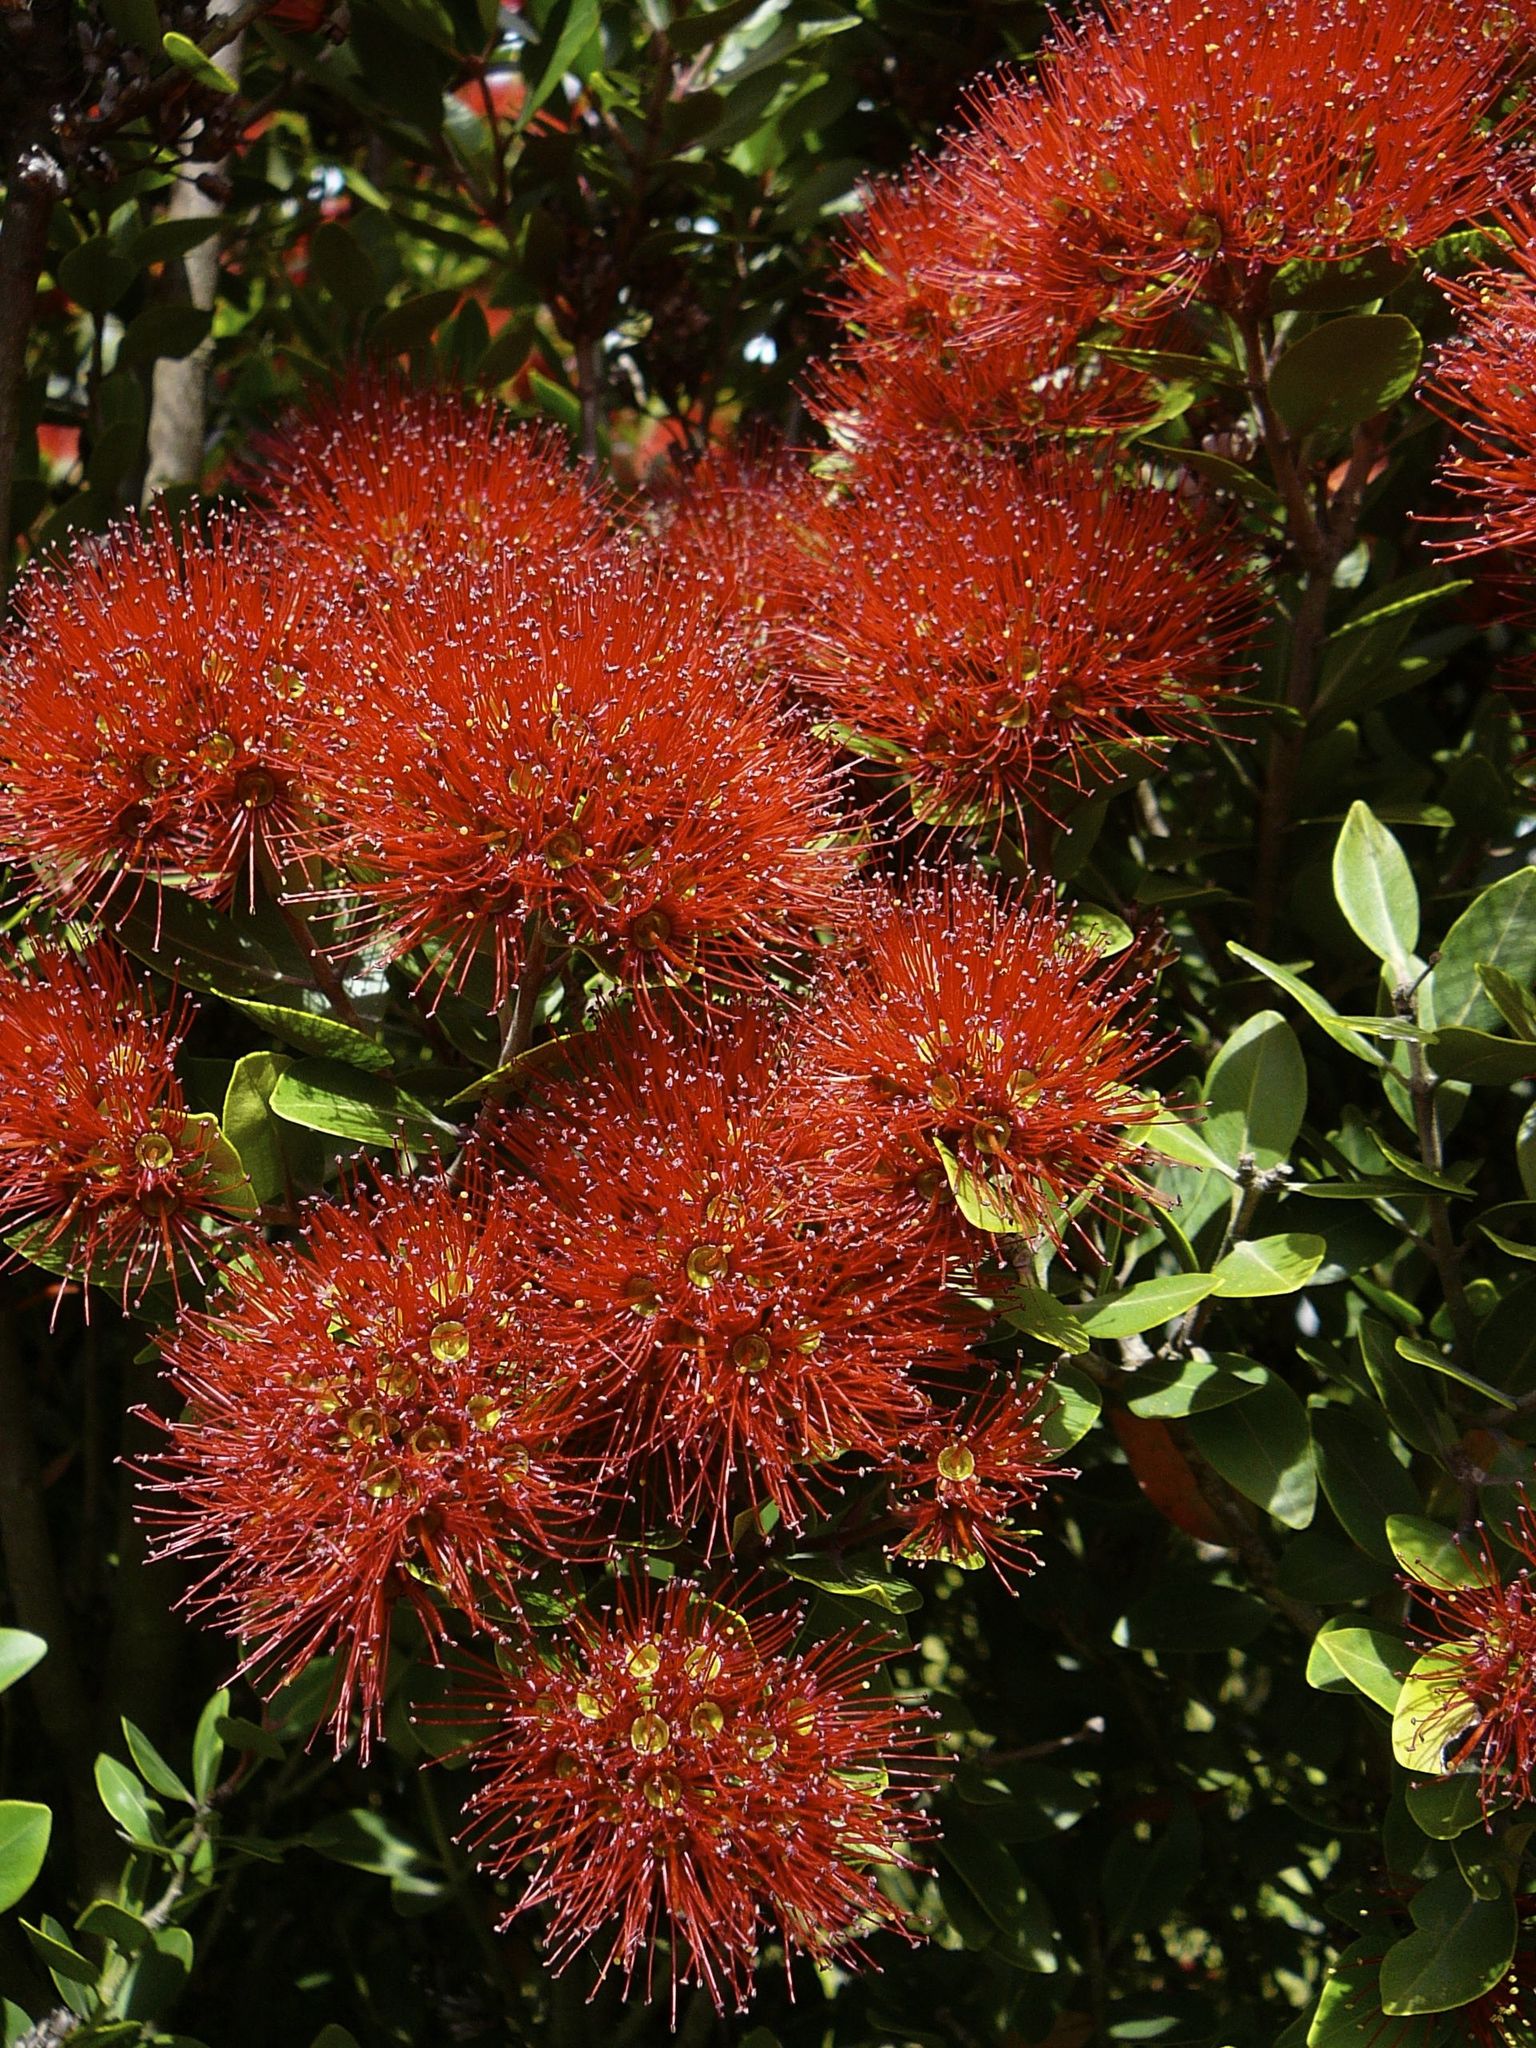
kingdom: Plantae
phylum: Tracheophyta
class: Magnoliopsida
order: Myrtales
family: Myrtaceae
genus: Metrosideros
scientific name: Metrosideros robusta
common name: Northern rata
